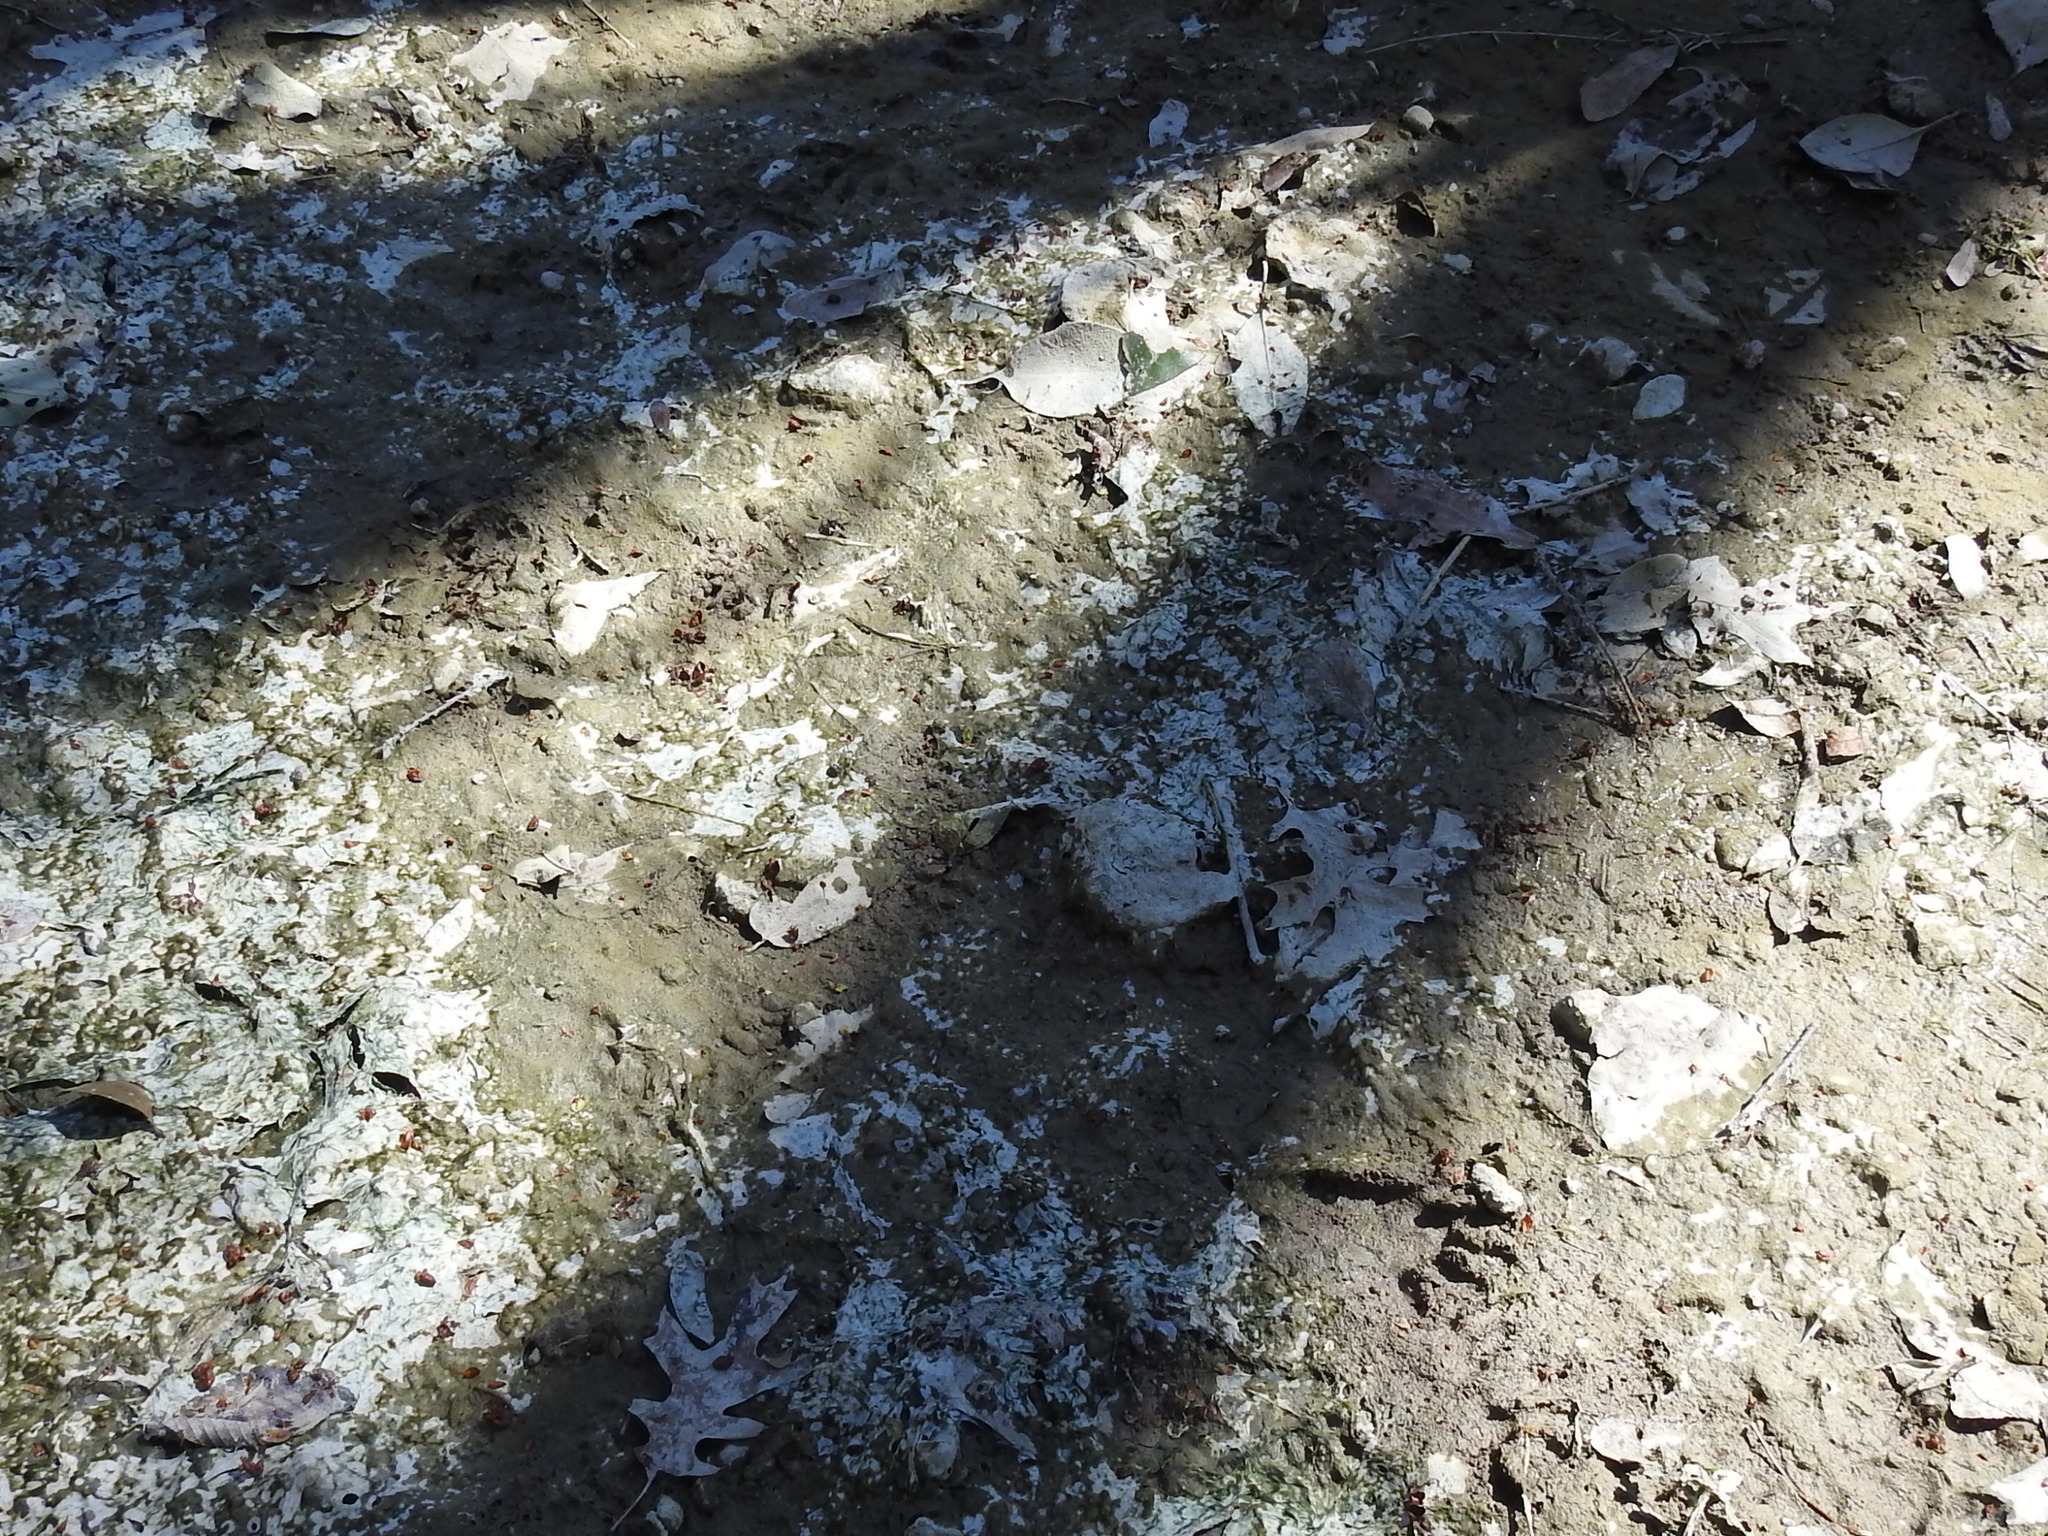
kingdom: Animalia
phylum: Chordata
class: Mammalia
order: Carnivora
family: Procyonidae
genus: Procyon
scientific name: Procyon lotor
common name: Raccoon
